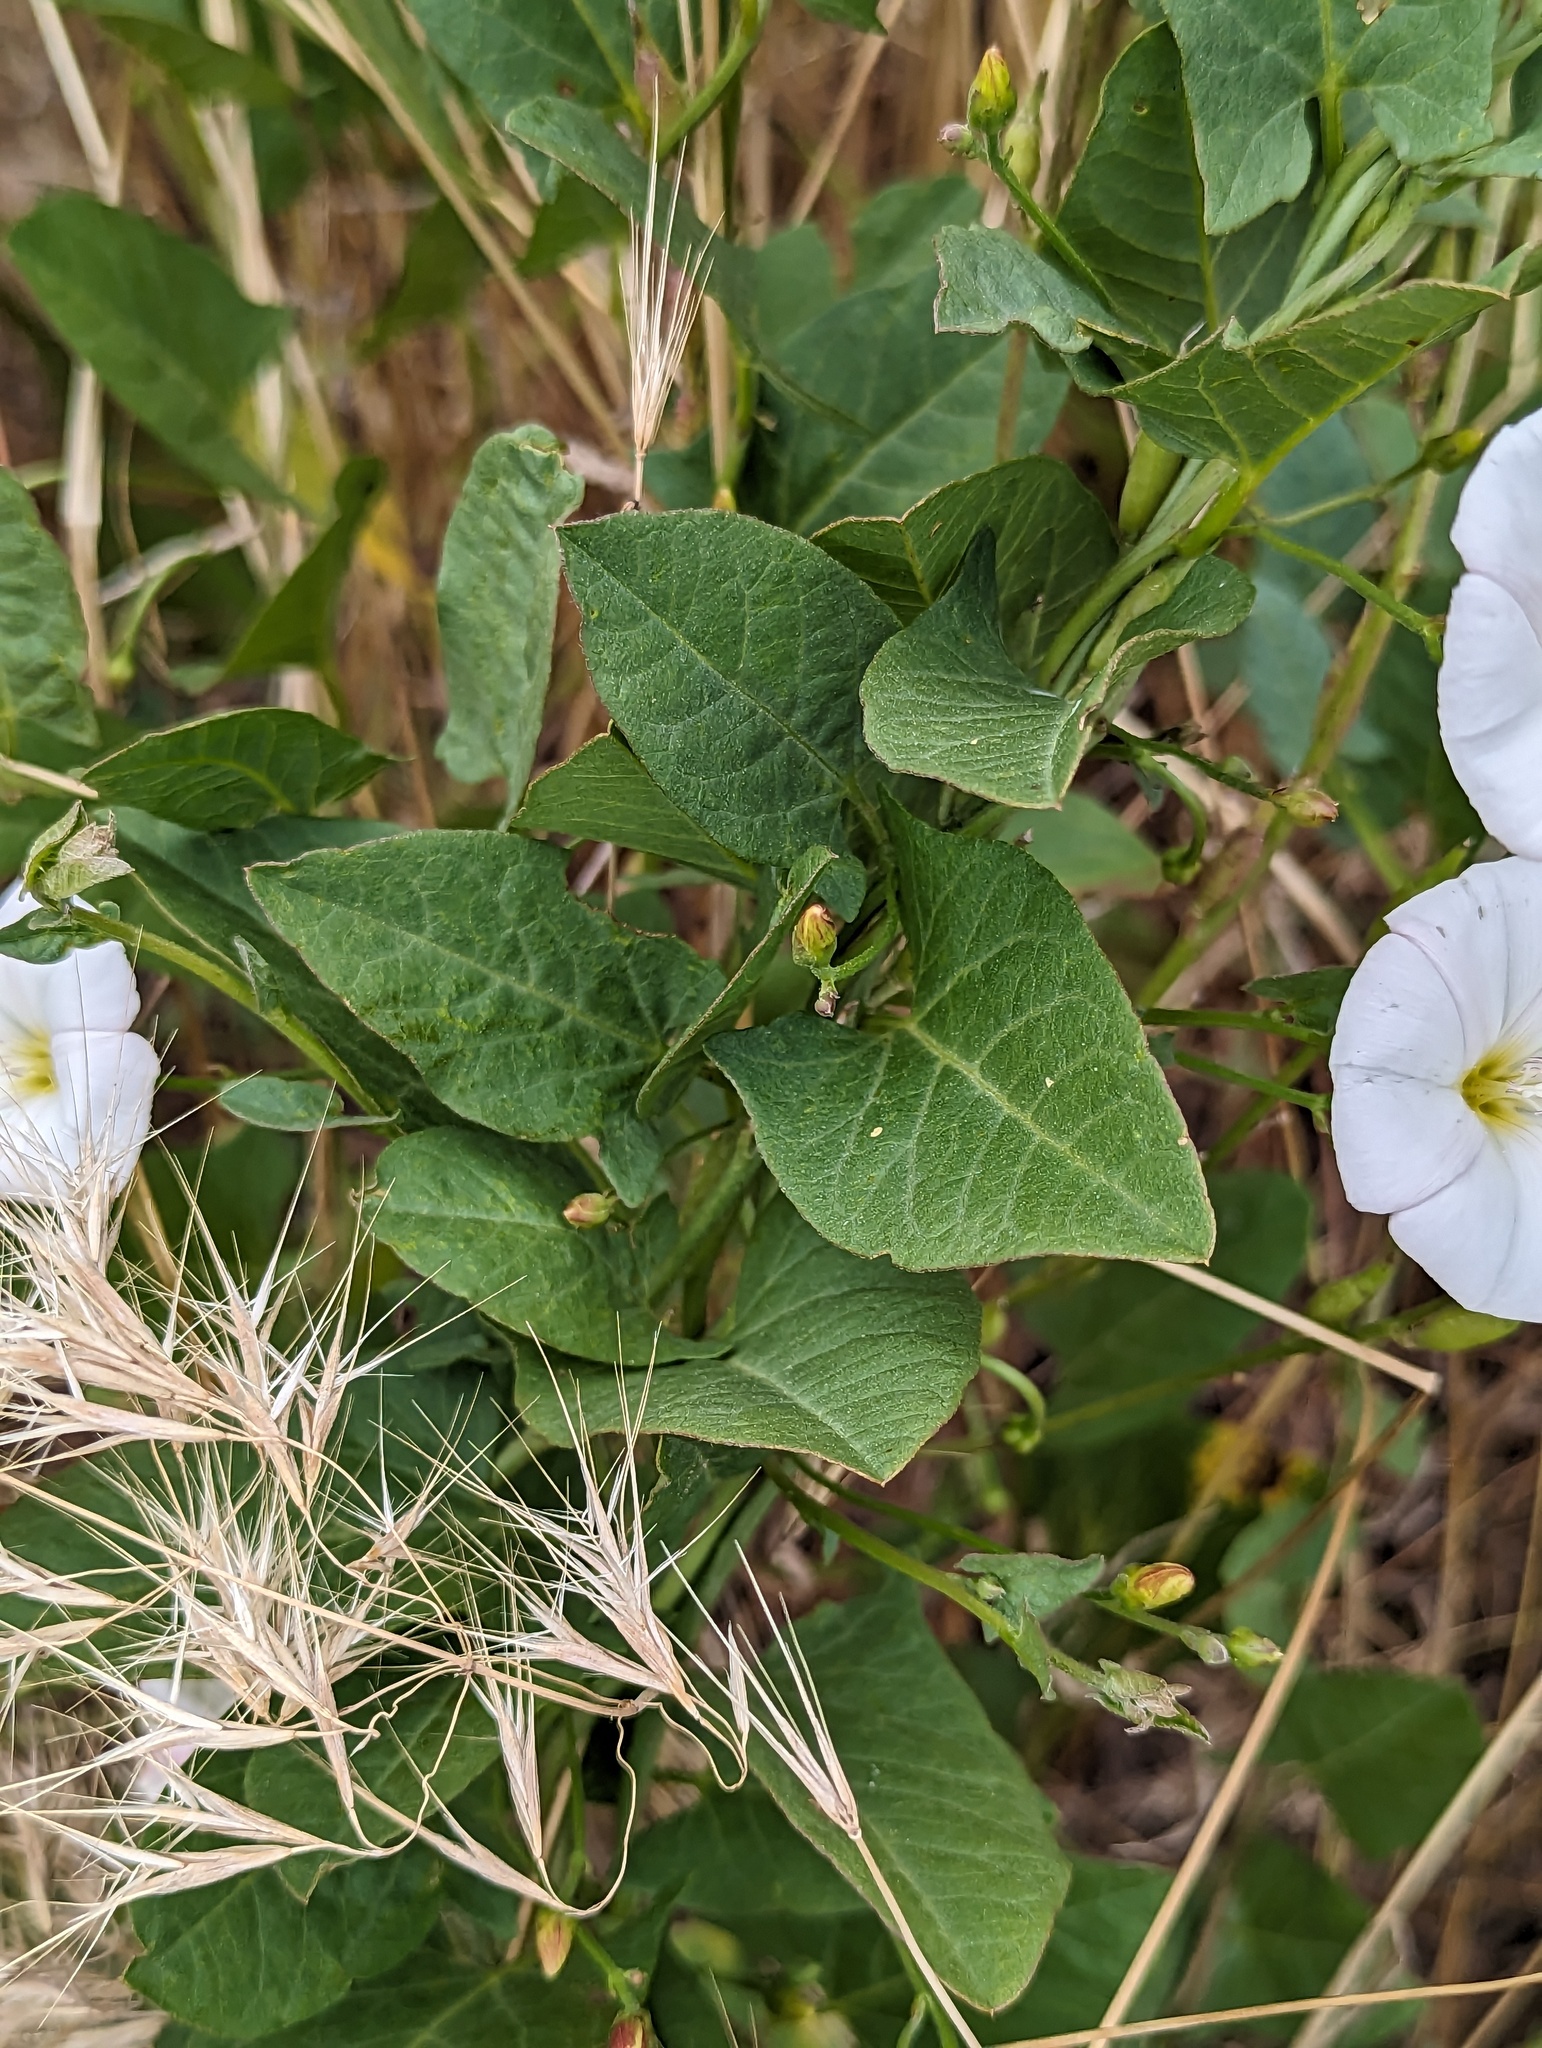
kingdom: Plantae
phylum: Tracheophyta
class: Magnoliopsida
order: Solanales
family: Convolvulaceae
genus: Convolvulus
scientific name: Convolvulus arvensis
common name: Field bindweed
